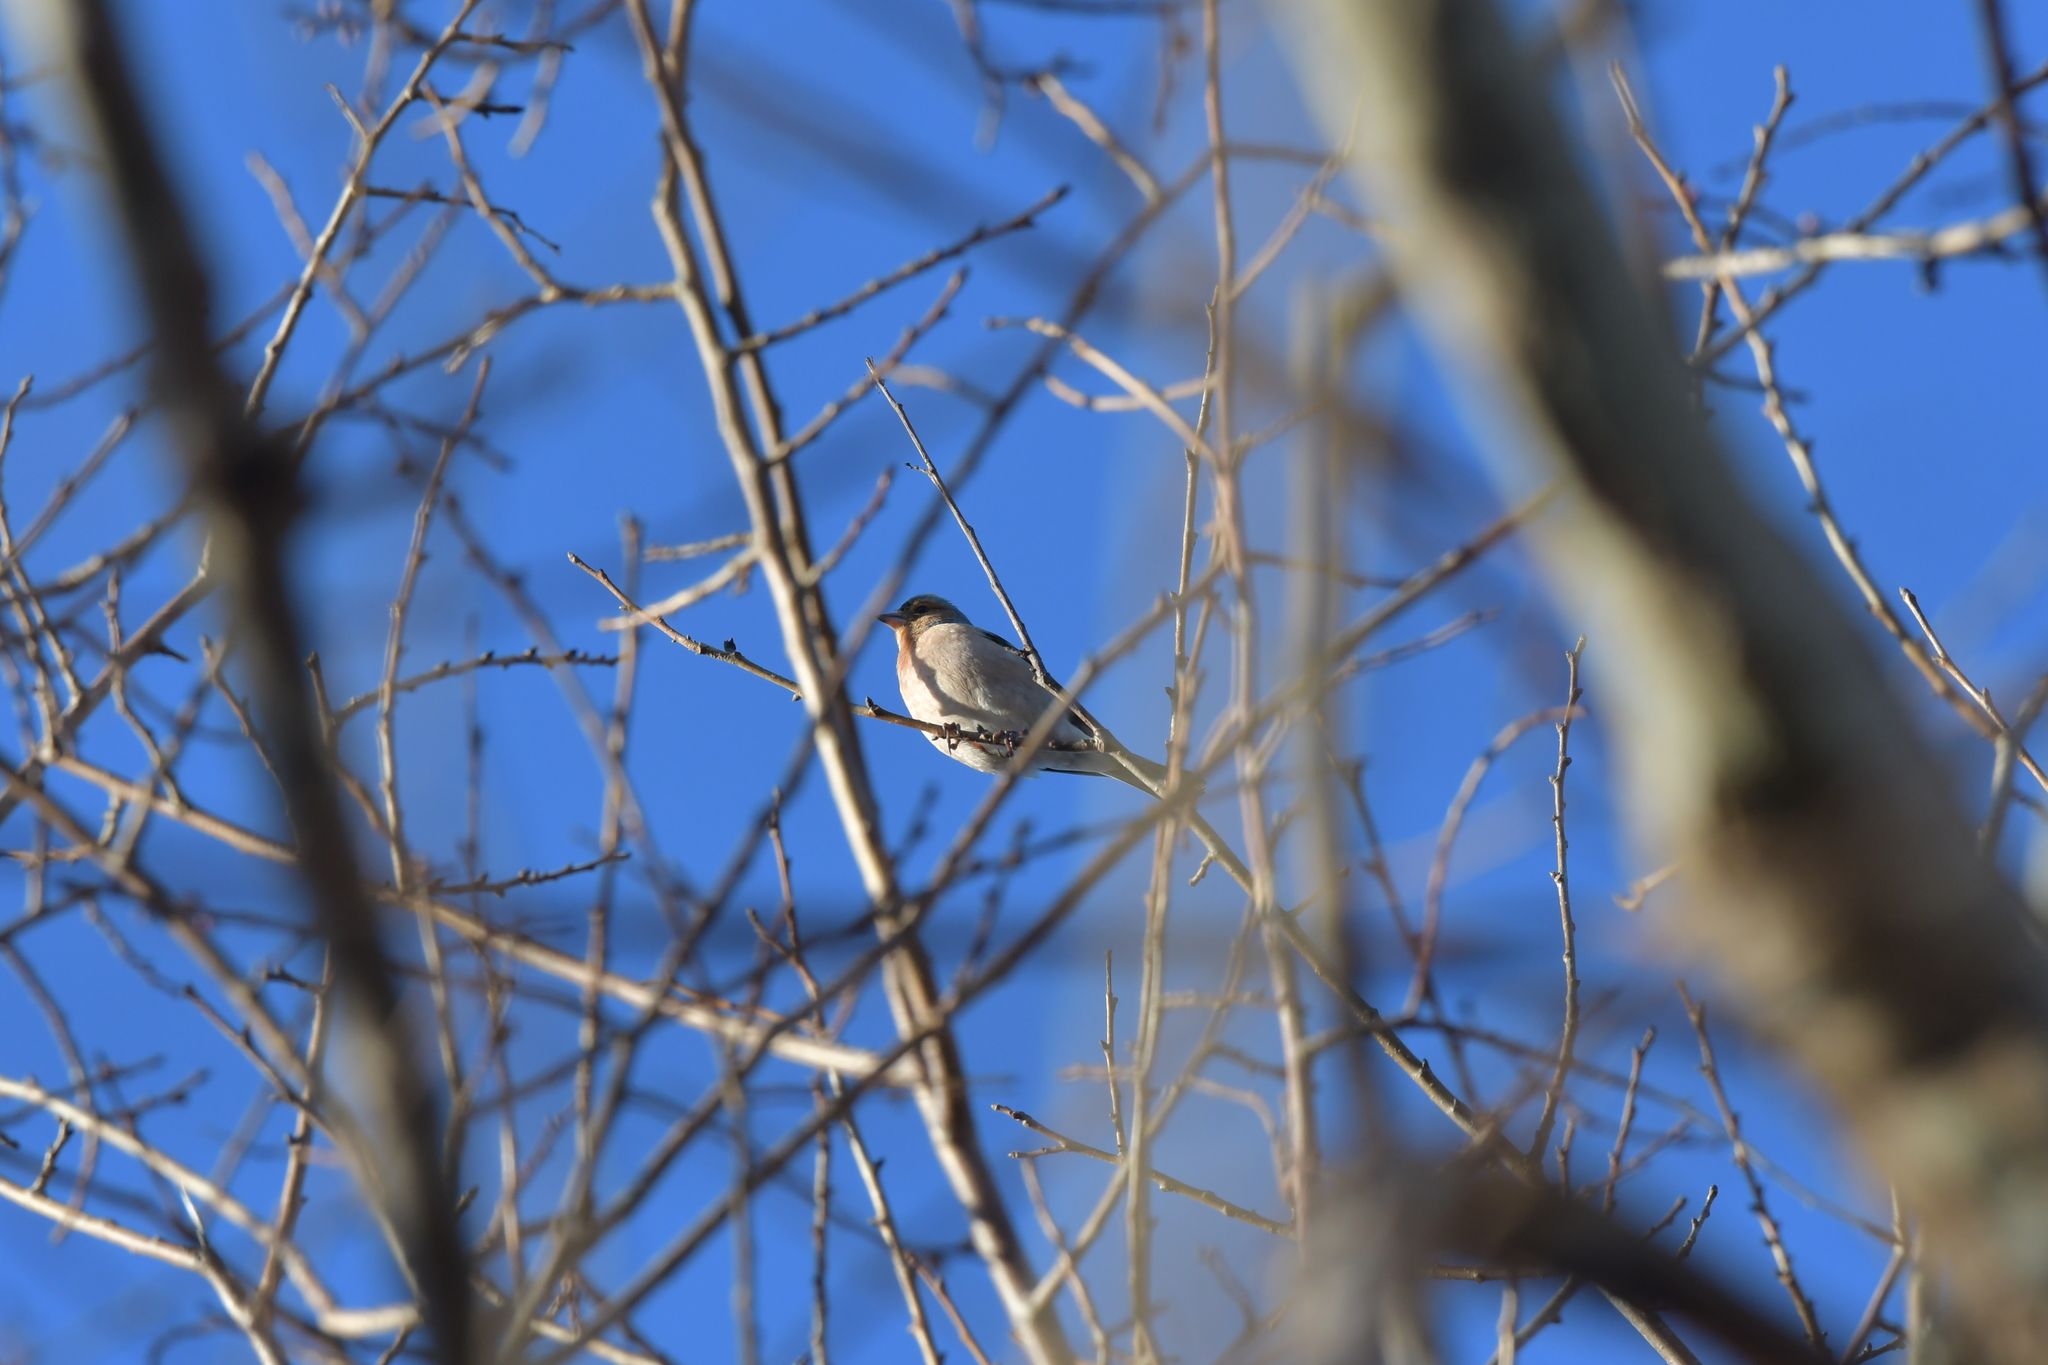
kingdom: Animalia
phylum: Chordata
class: Aves
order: Passeriformes
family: Fringillidae
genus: Fringilla
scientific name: Fringilla coelebs
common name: Common chaffinch
